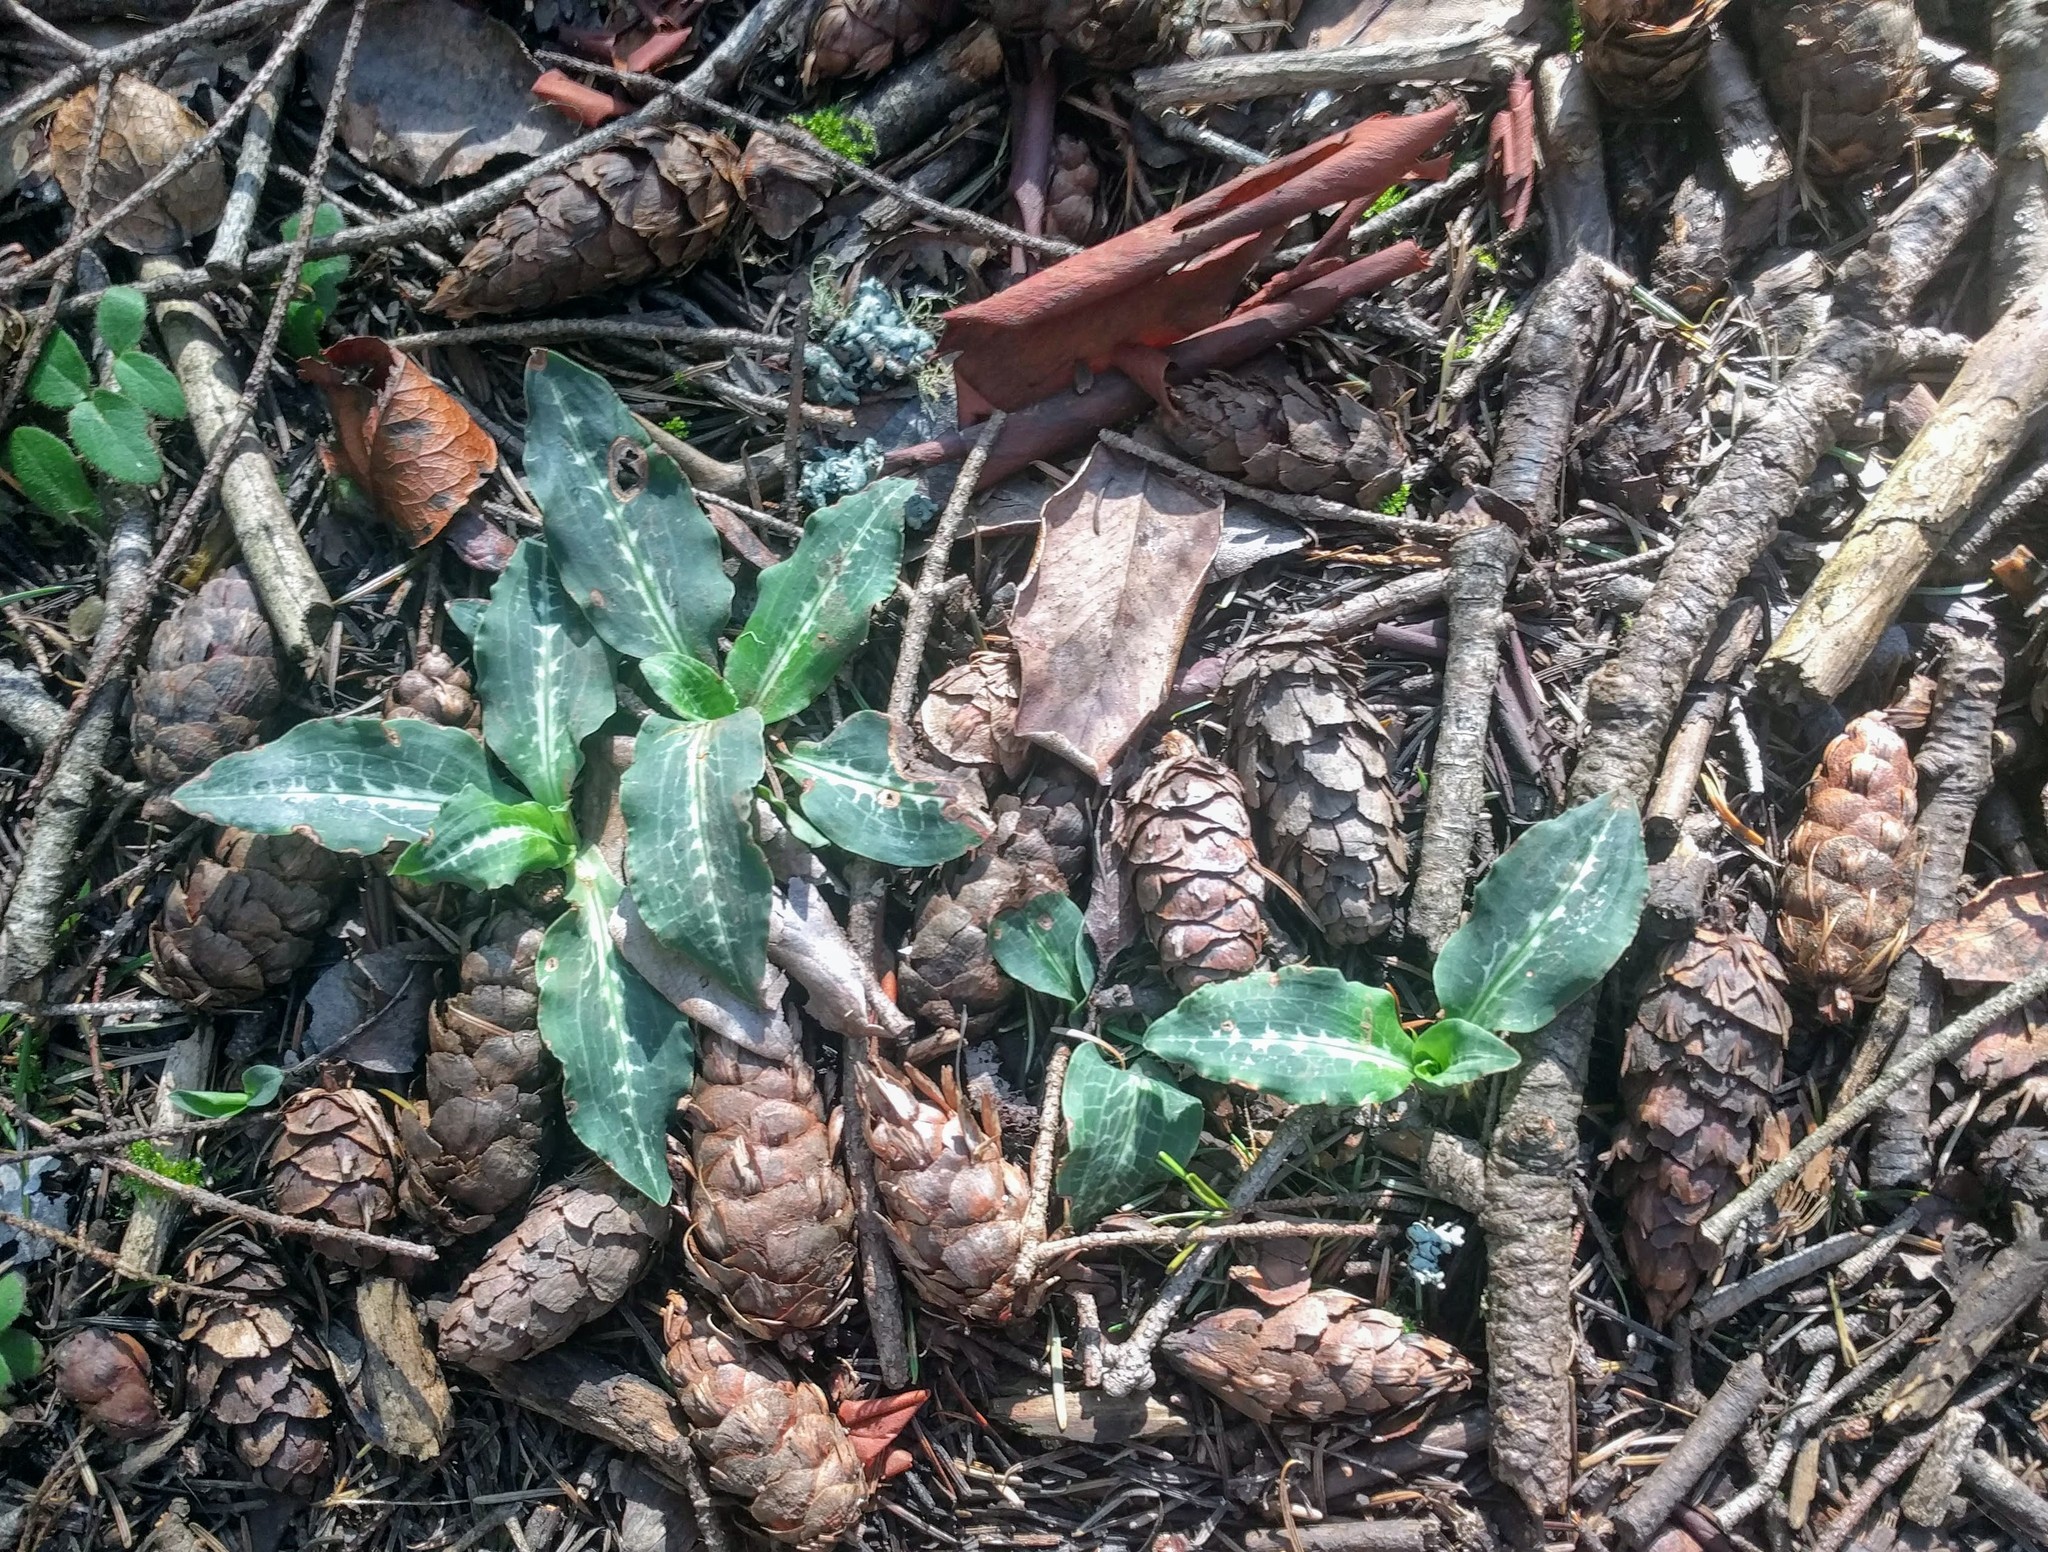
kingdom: Plantae
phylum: Tracheophyta
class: Liliopsida
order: Asparagales
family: Orchidaceae
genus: Goodyera
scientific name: Goodyera oblongifolia
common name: Giant rattlesnake-plantain
